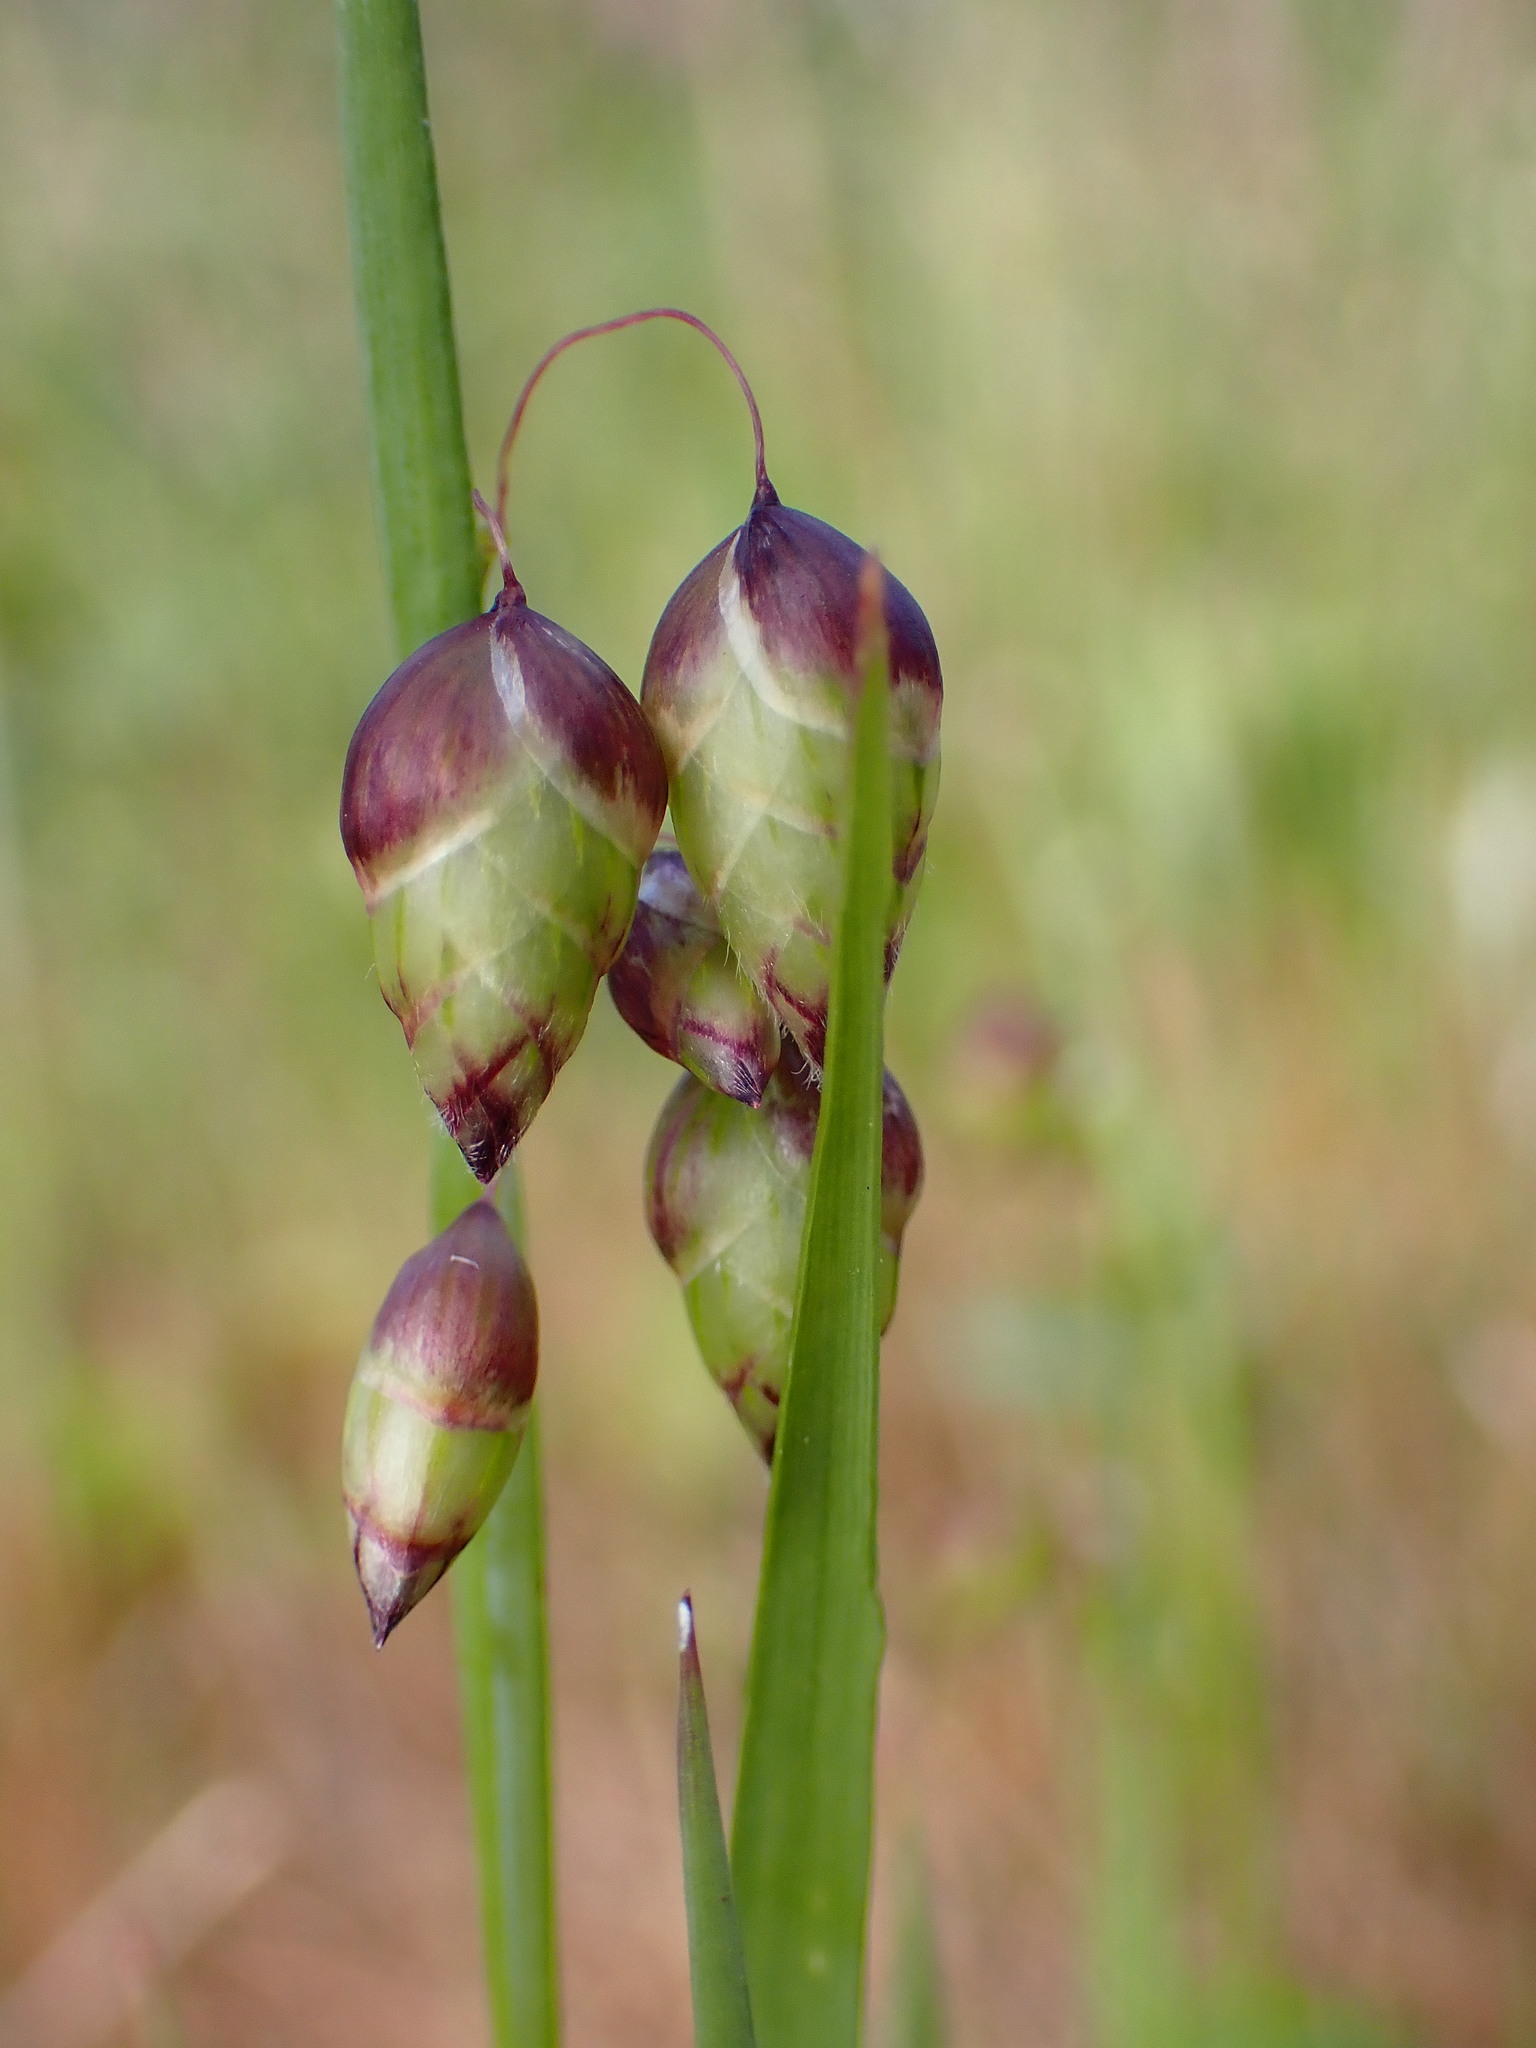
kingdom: Plantae
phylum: Tracheophyta
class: Liliopsida
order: Poales
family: Poaceae
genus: Briza
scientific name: Briza maxima
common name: Big quakinggrass
